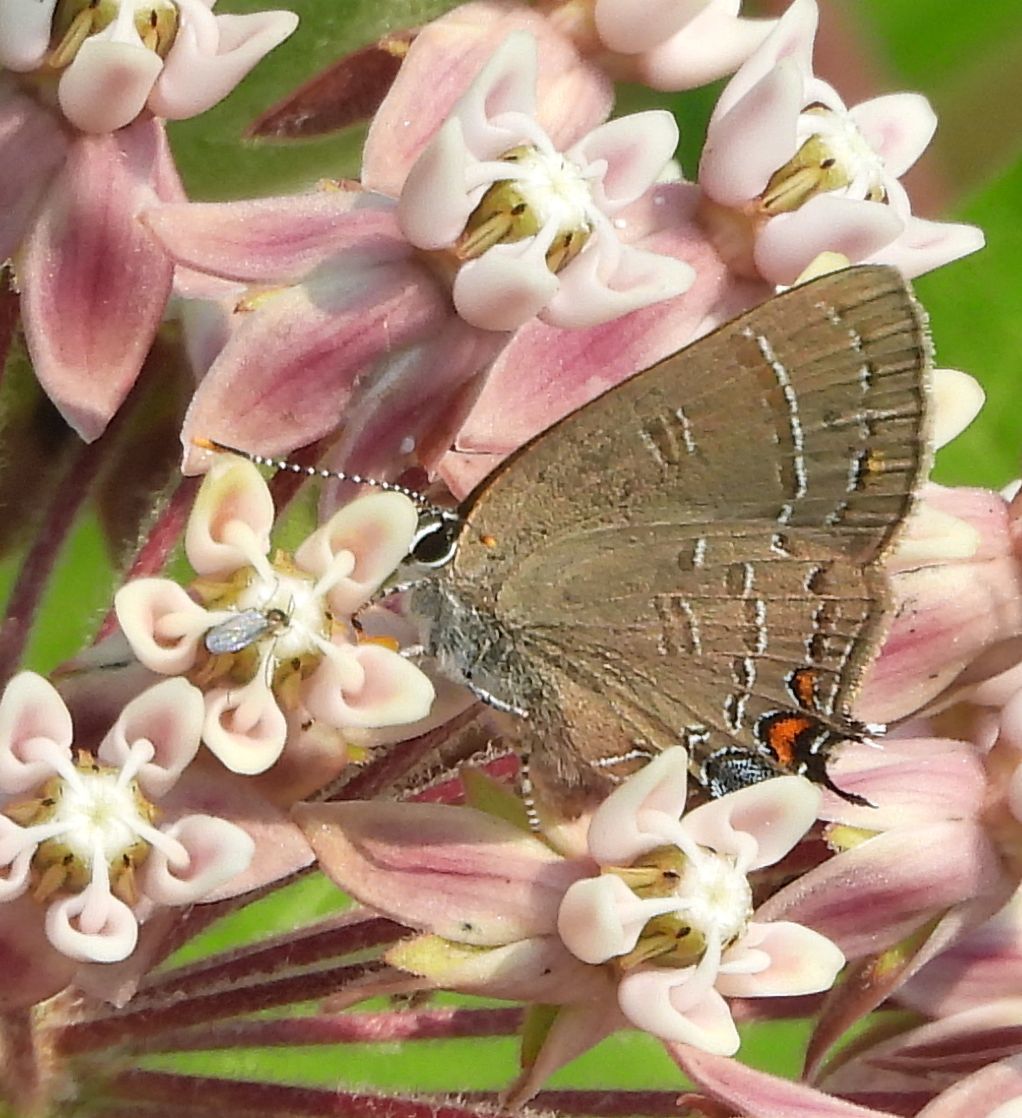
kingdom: Animalia
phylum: Arthropoda
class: Insecta
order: Lepidoptera
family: Lycaenidae
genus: Satyrium
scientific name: Satyrium calanus
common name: Banded hairstreak
